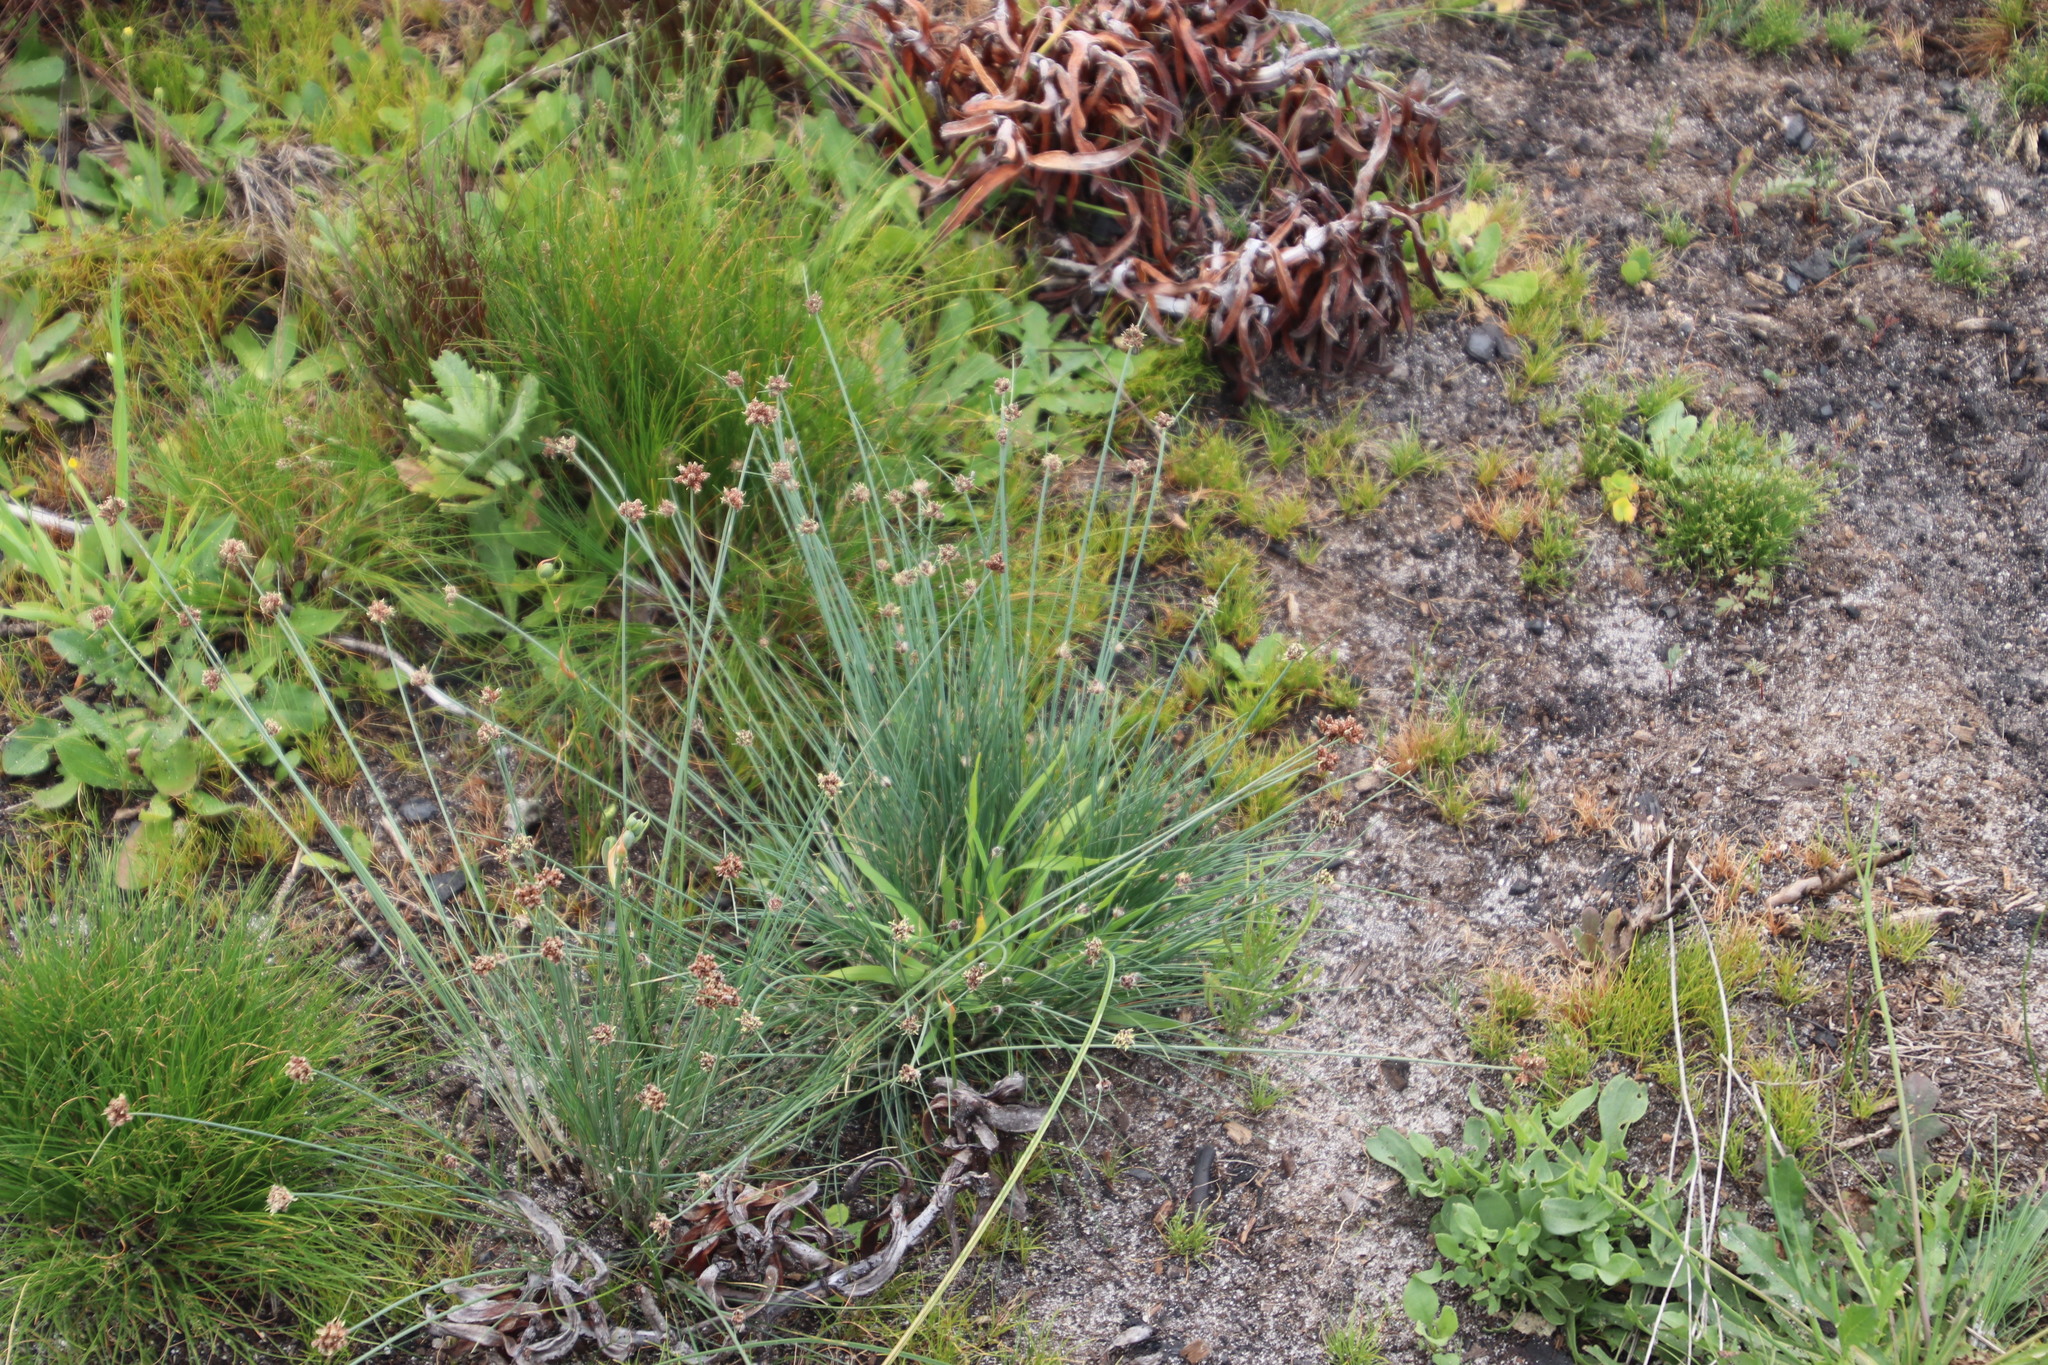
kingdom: Plantae
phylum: Tracheophyta
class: Liliopsida
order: Poales
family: Cyperaceae
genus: Ficinia
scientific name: Ficinia paradoxa
